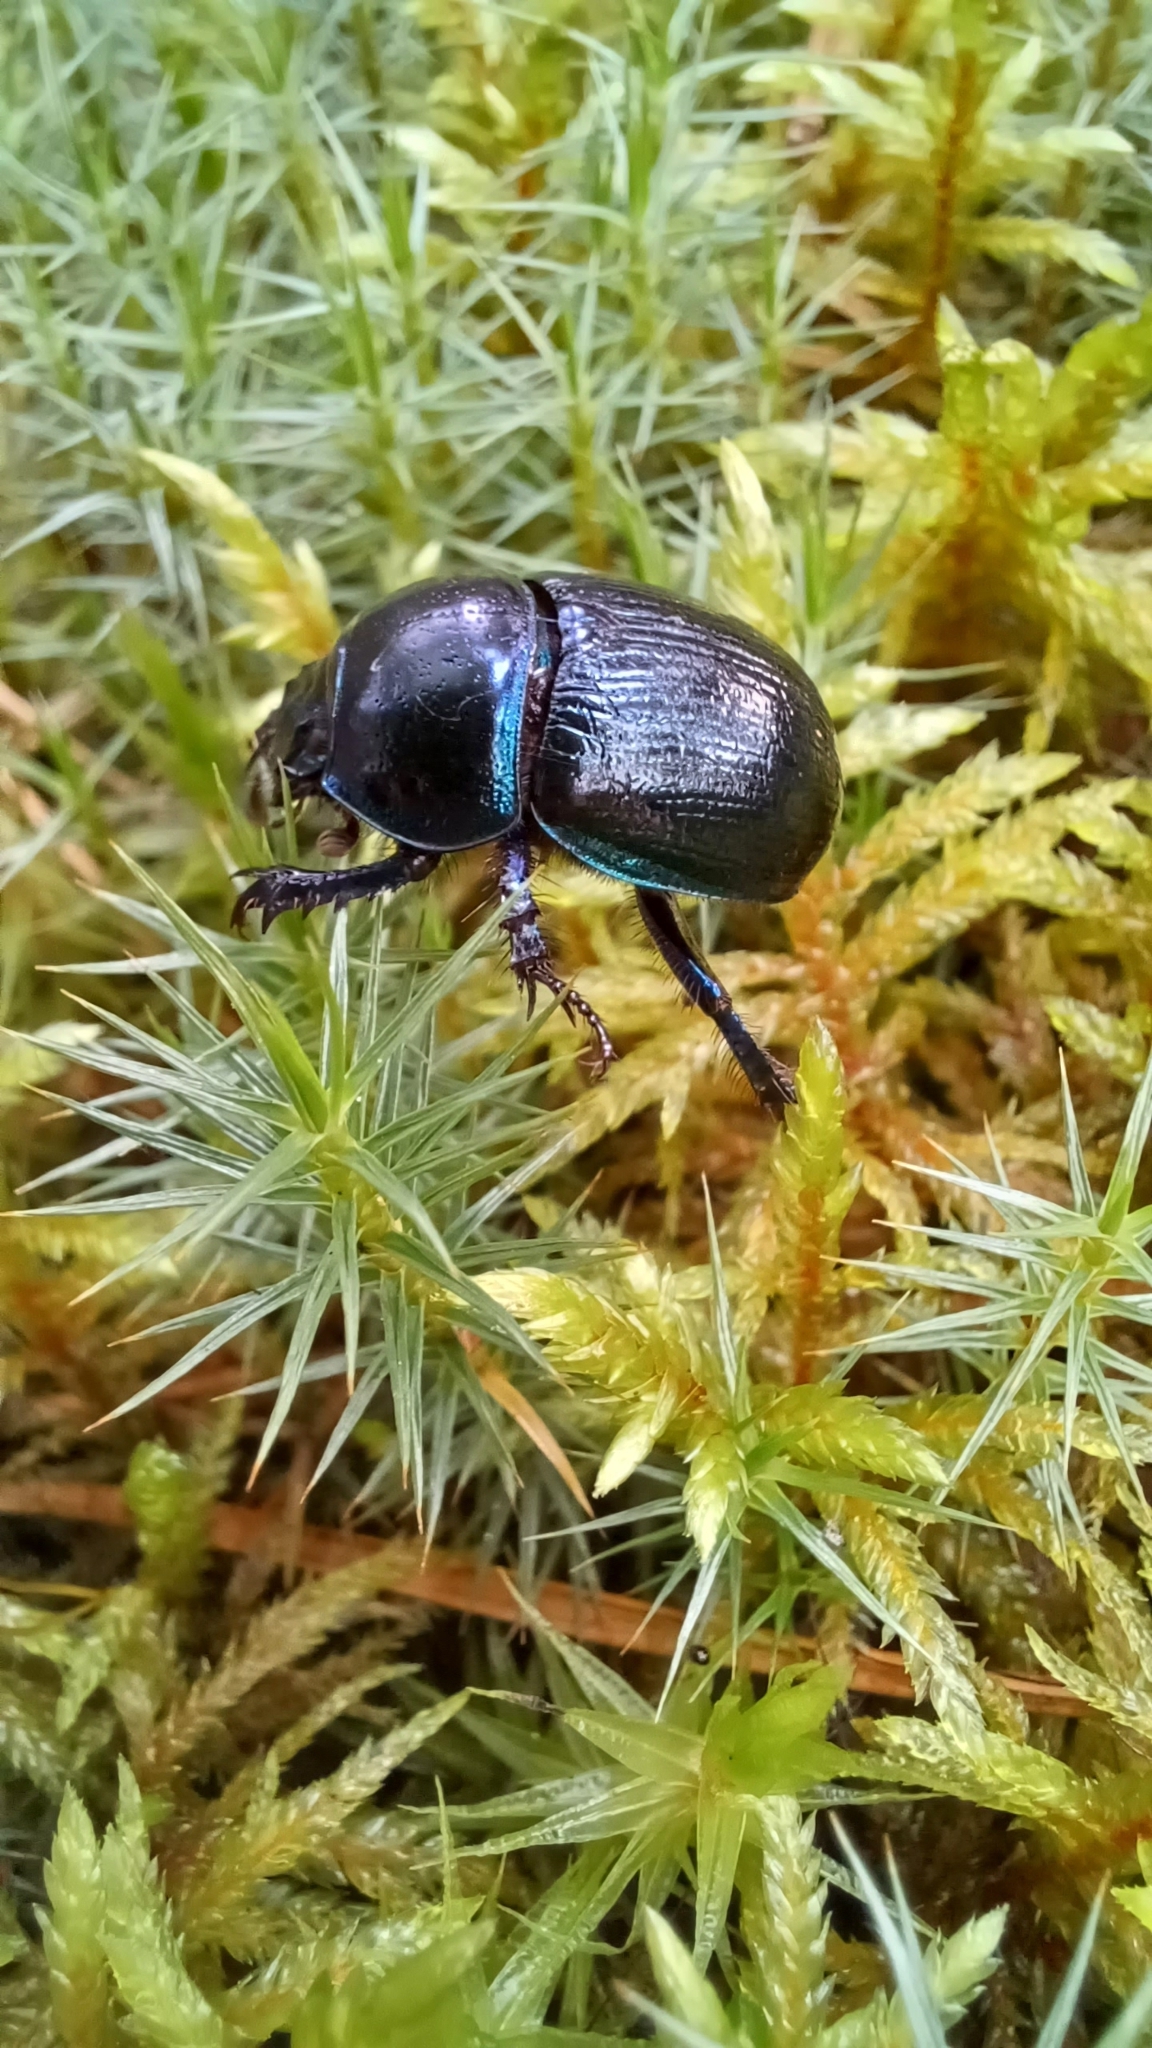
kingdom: Animalia
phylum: Arthropoda
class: Insecta
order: Coleoptera
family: Geotrupidae
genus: Anoplotrupes
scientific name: Anoplotrupes stercorosus
